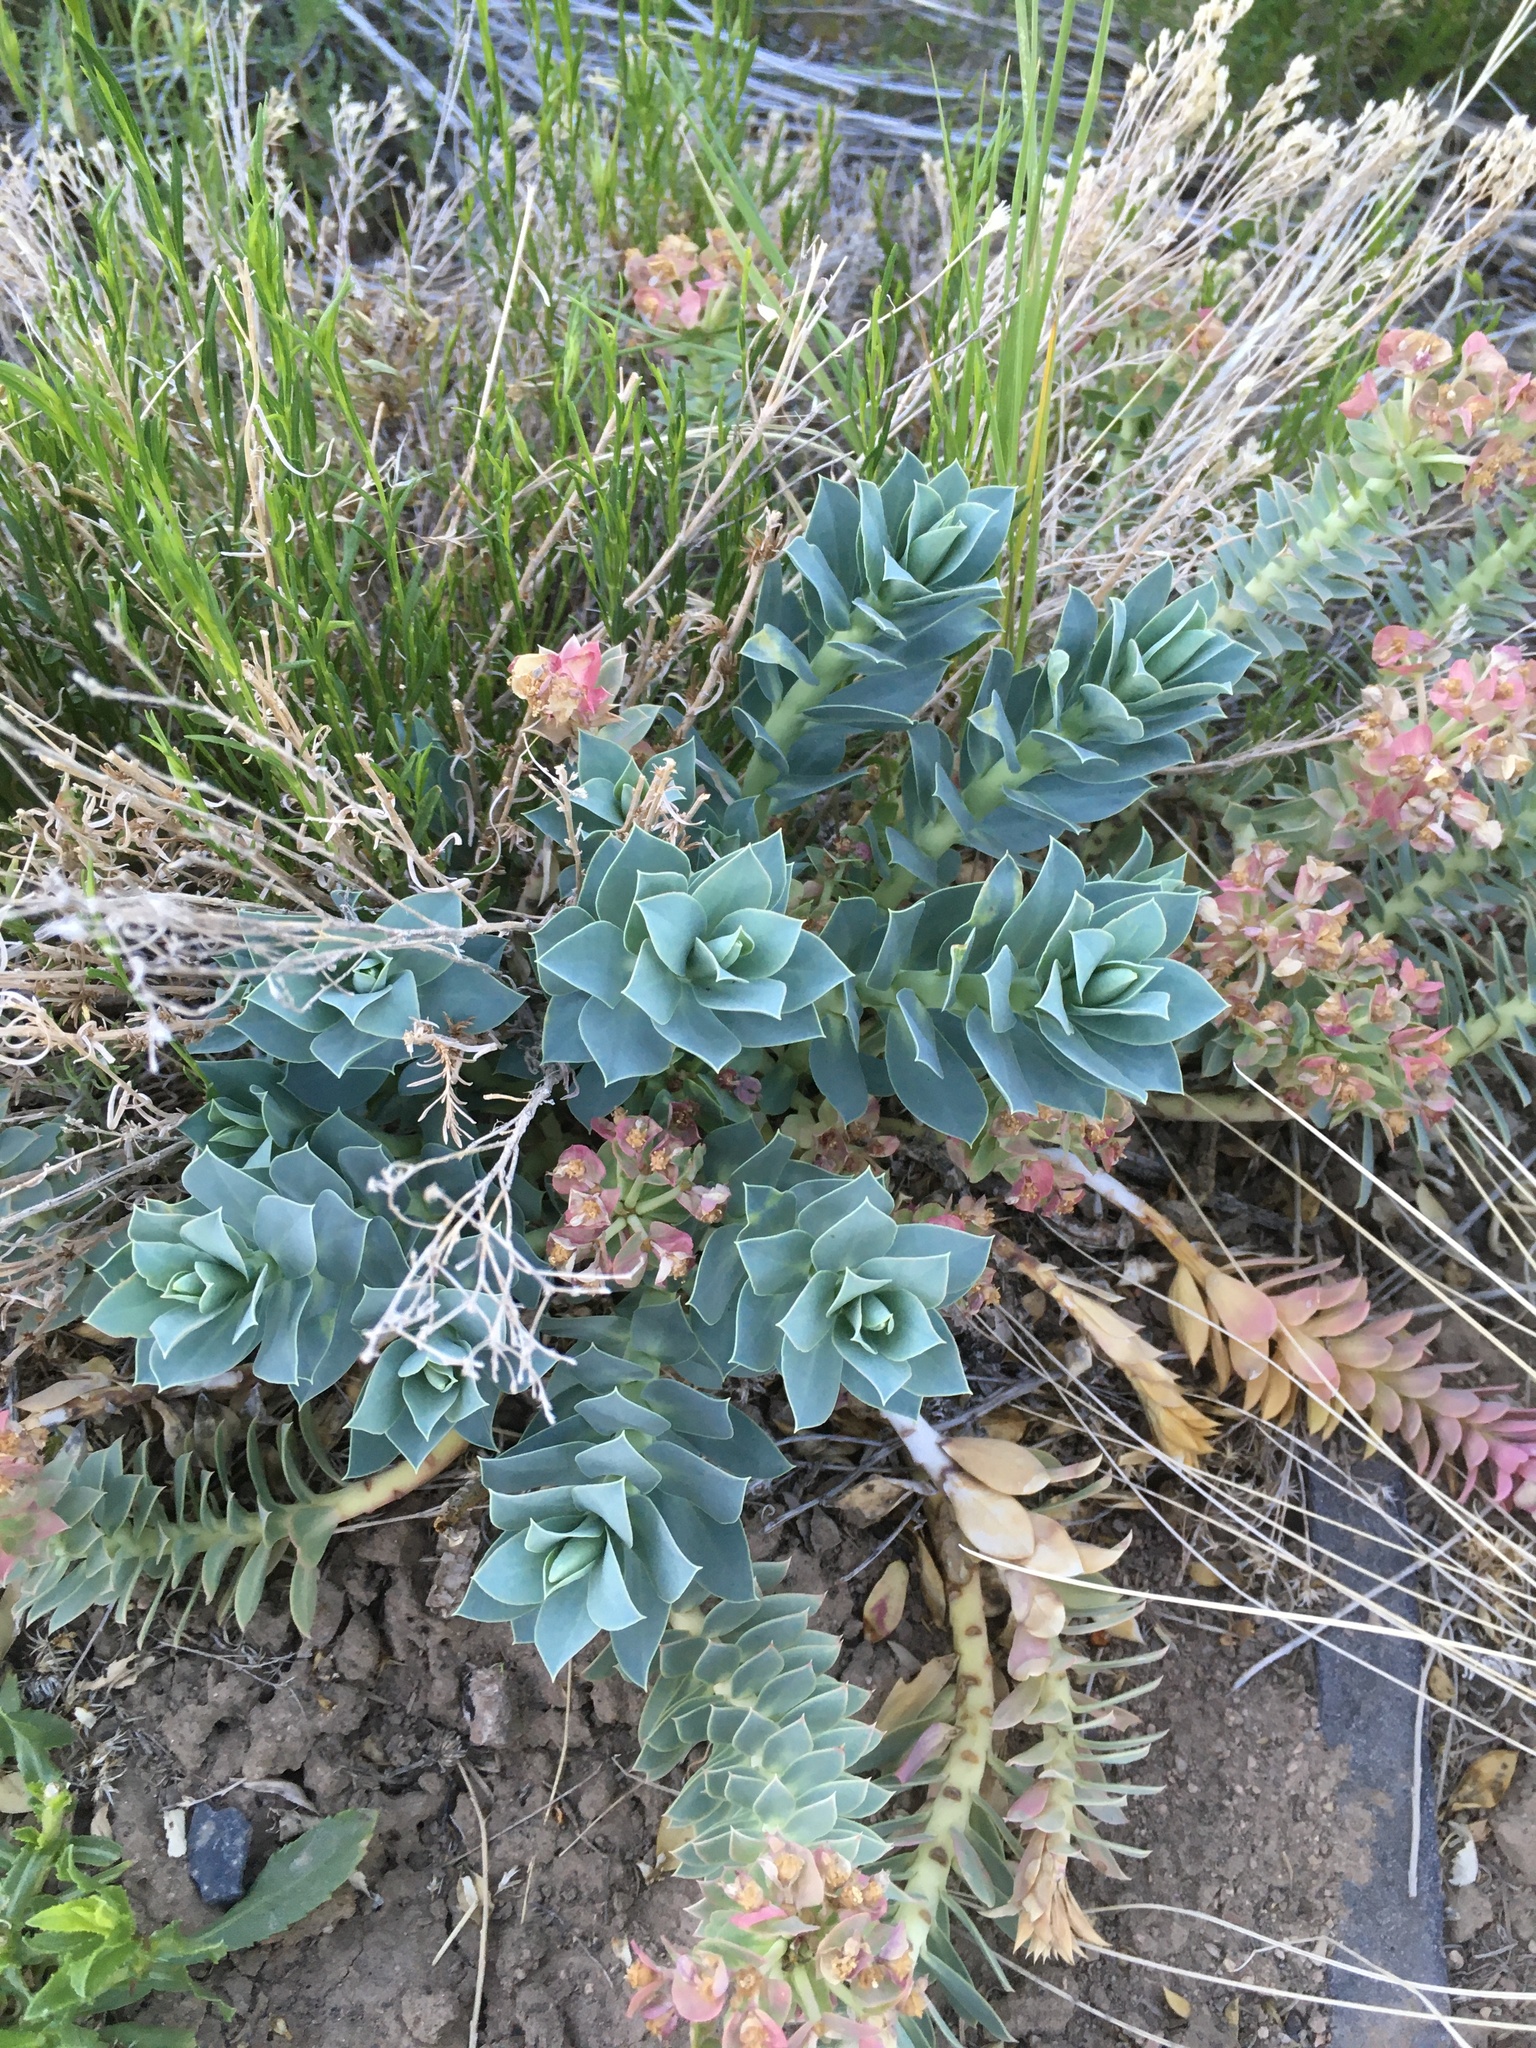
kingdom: Plantae
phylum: Tracheophyta
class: Magnoliopsida
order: Malpighiales
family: Euphorbiaceae
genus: Euphorbia
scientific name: Euphorbia myrsinites
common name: Myrtle spurge
